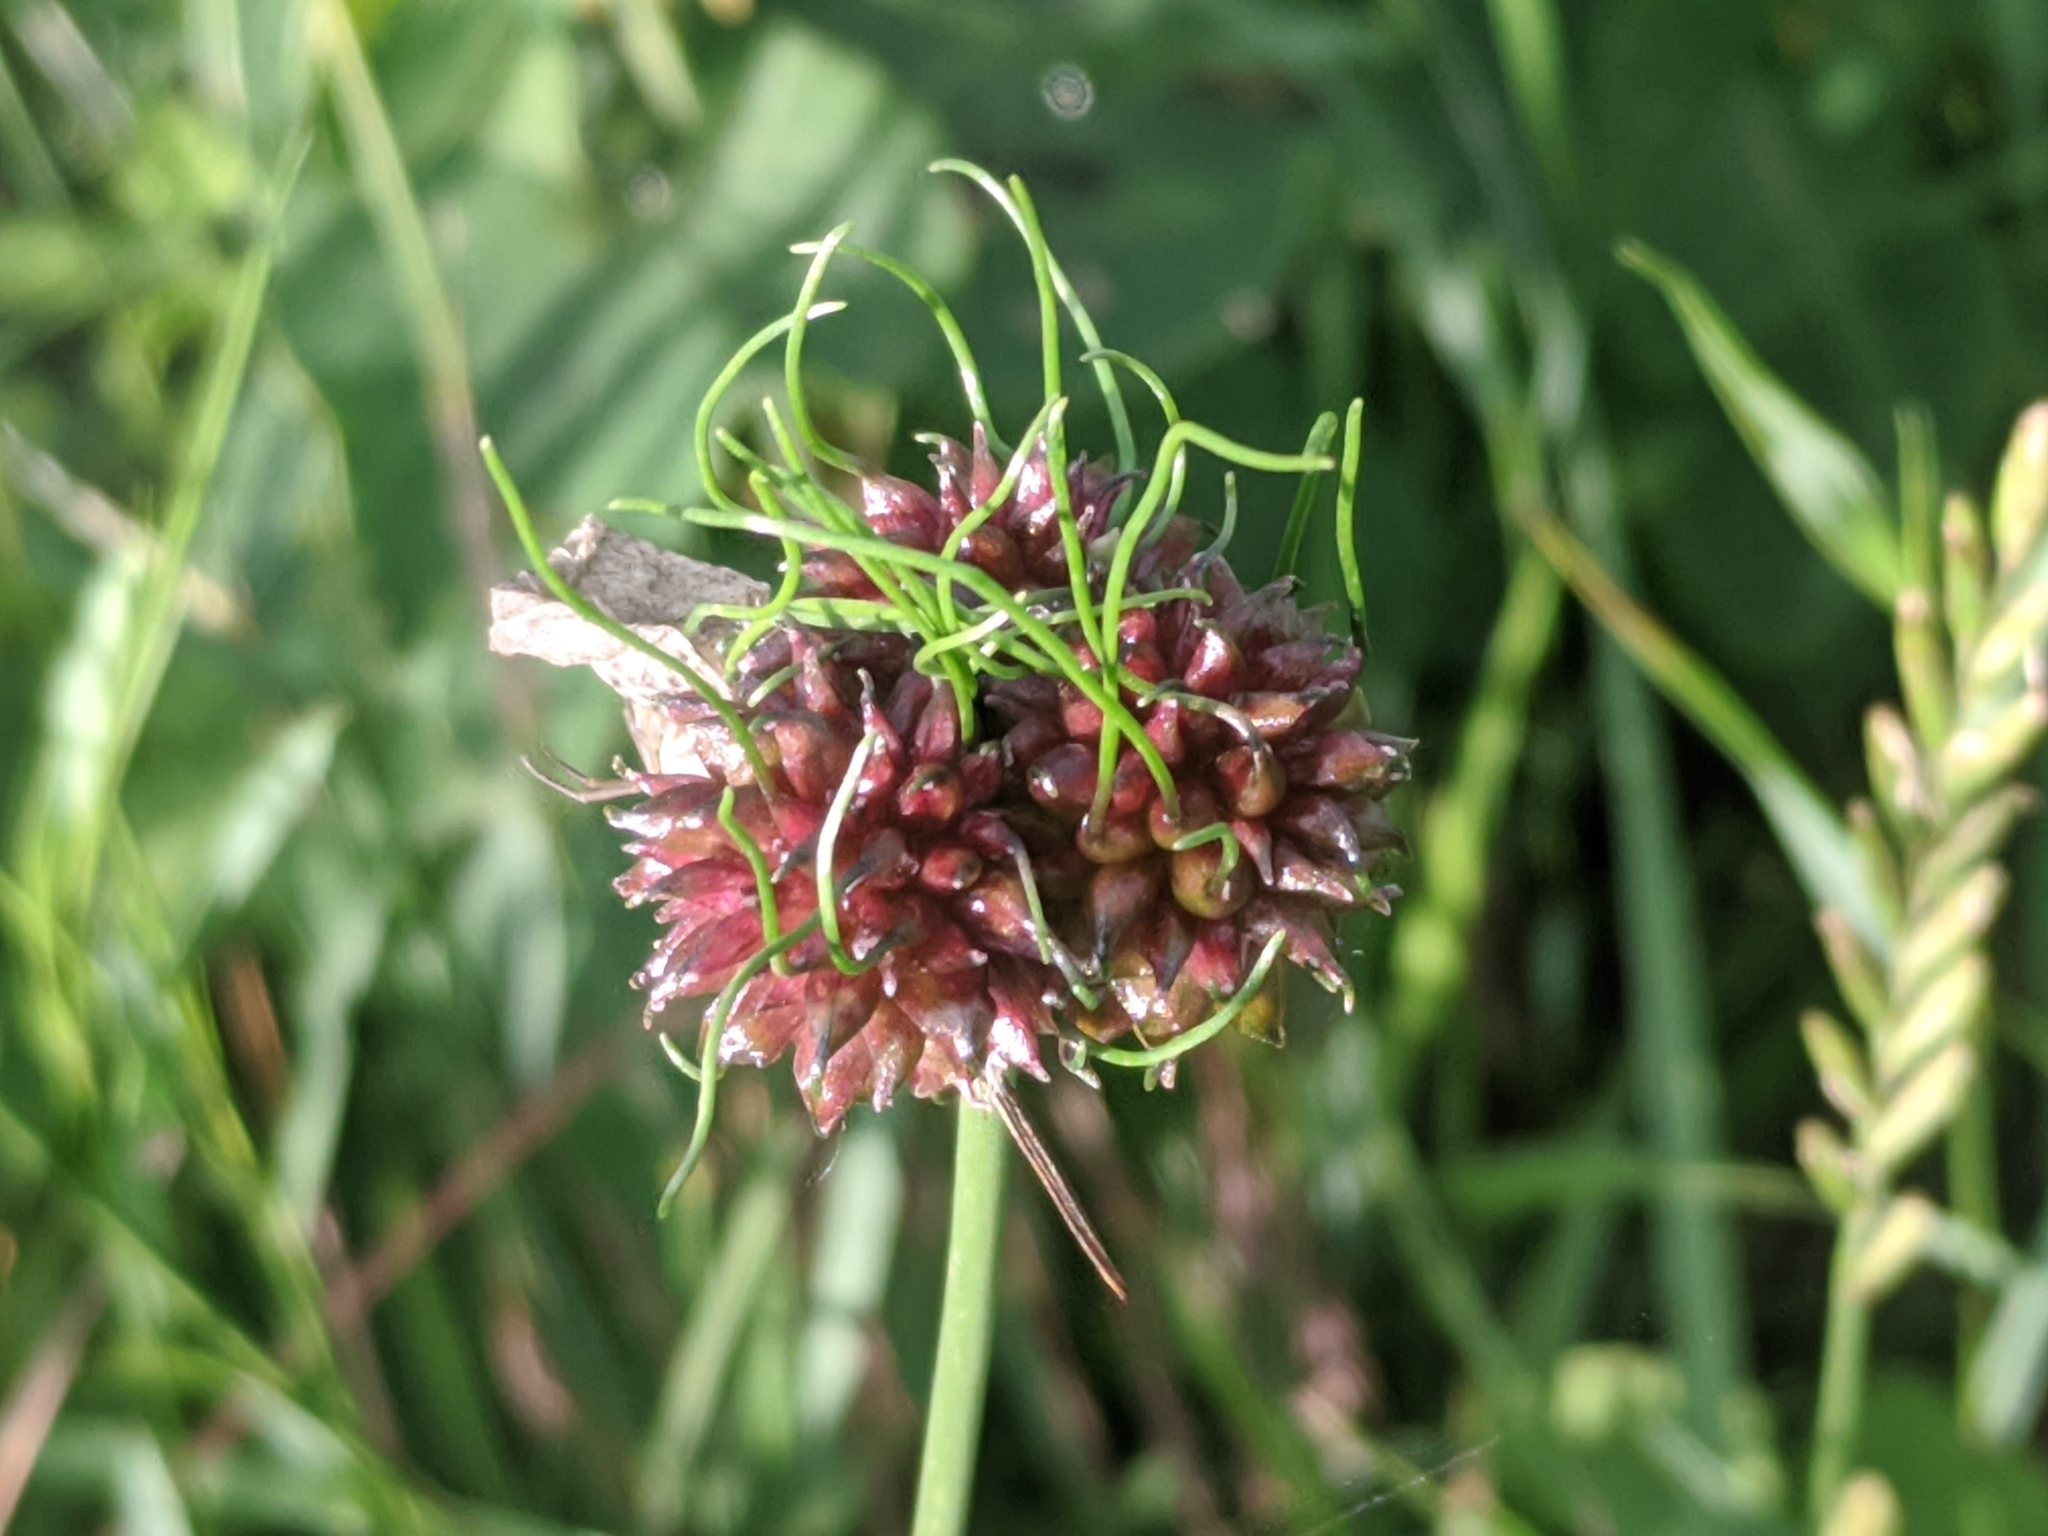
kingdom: Plantae
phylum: Tracheophyta
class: Liliopsida
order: Asparagales
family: Amaryllidaceae
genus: Allium
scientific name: Allium vineale
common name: Crow garlic
